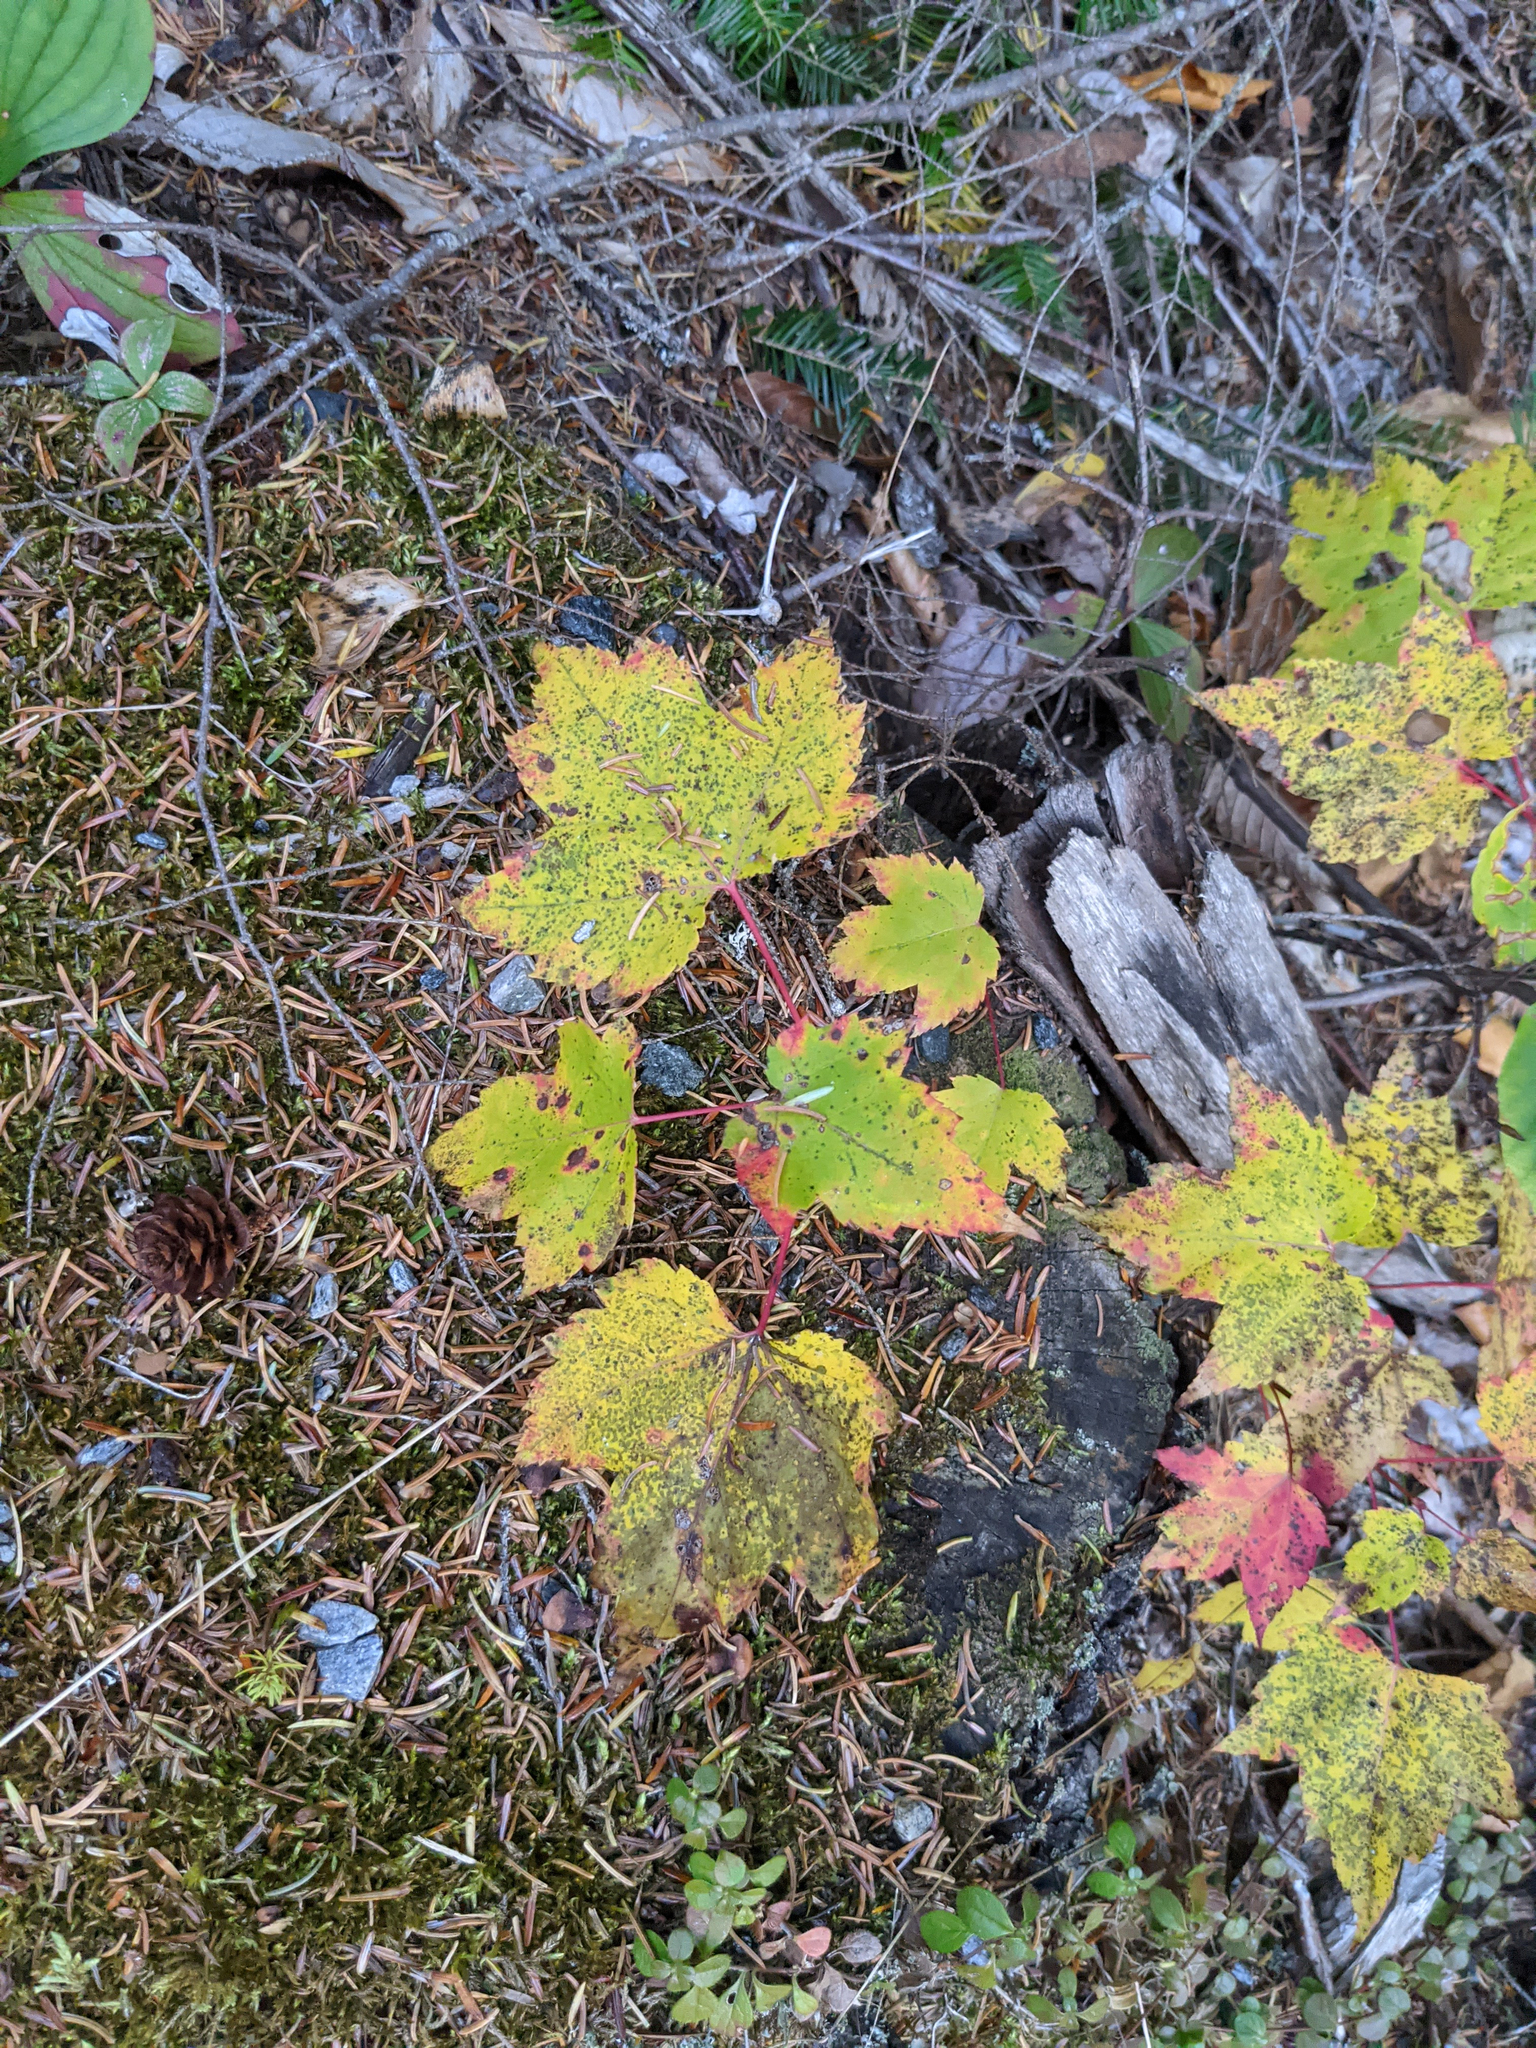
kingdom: Plantae
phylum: Tracheophyta
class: Magnoliopsida
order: Sapindales
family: Sapindaceae
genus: Acer
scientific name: Acer rubrum
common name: Red maple
